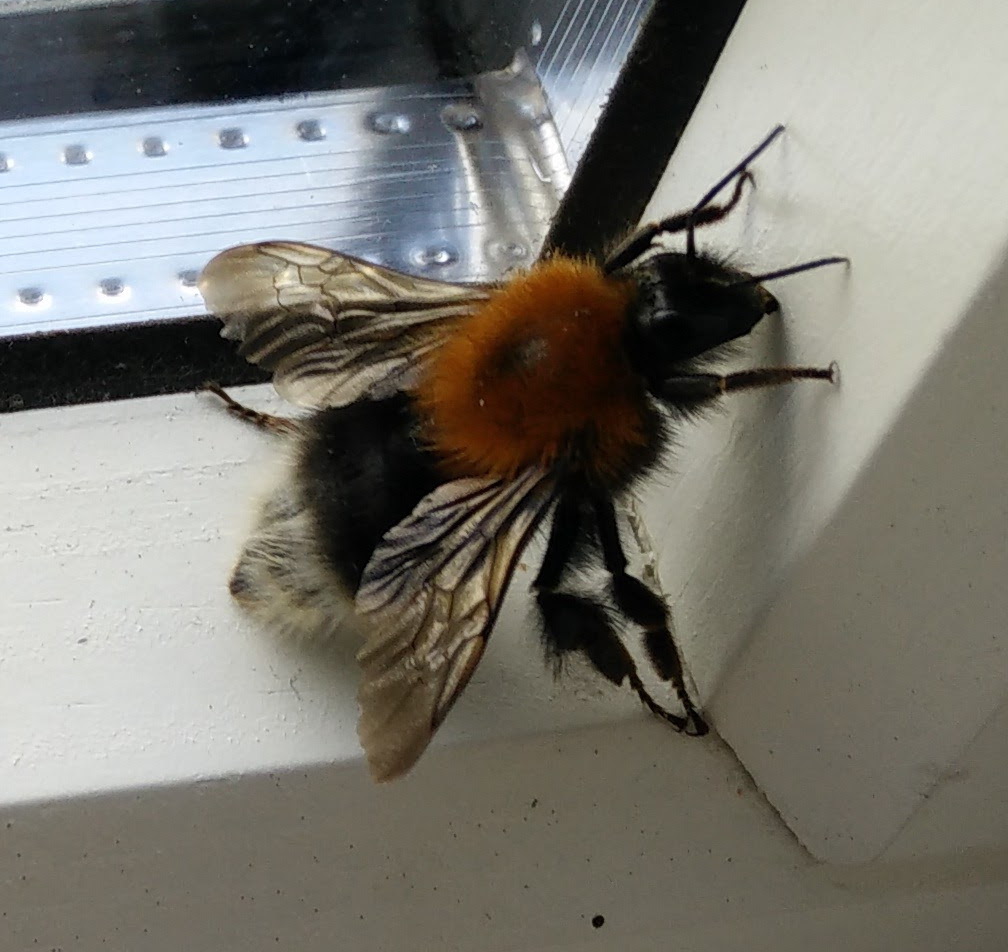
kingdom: Animalia
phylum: Arthropoda
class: Insecta
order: Hymenoptera
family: Apidae
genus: Bombus
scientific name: Bombus hypnorum
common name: New garden bumblebee
